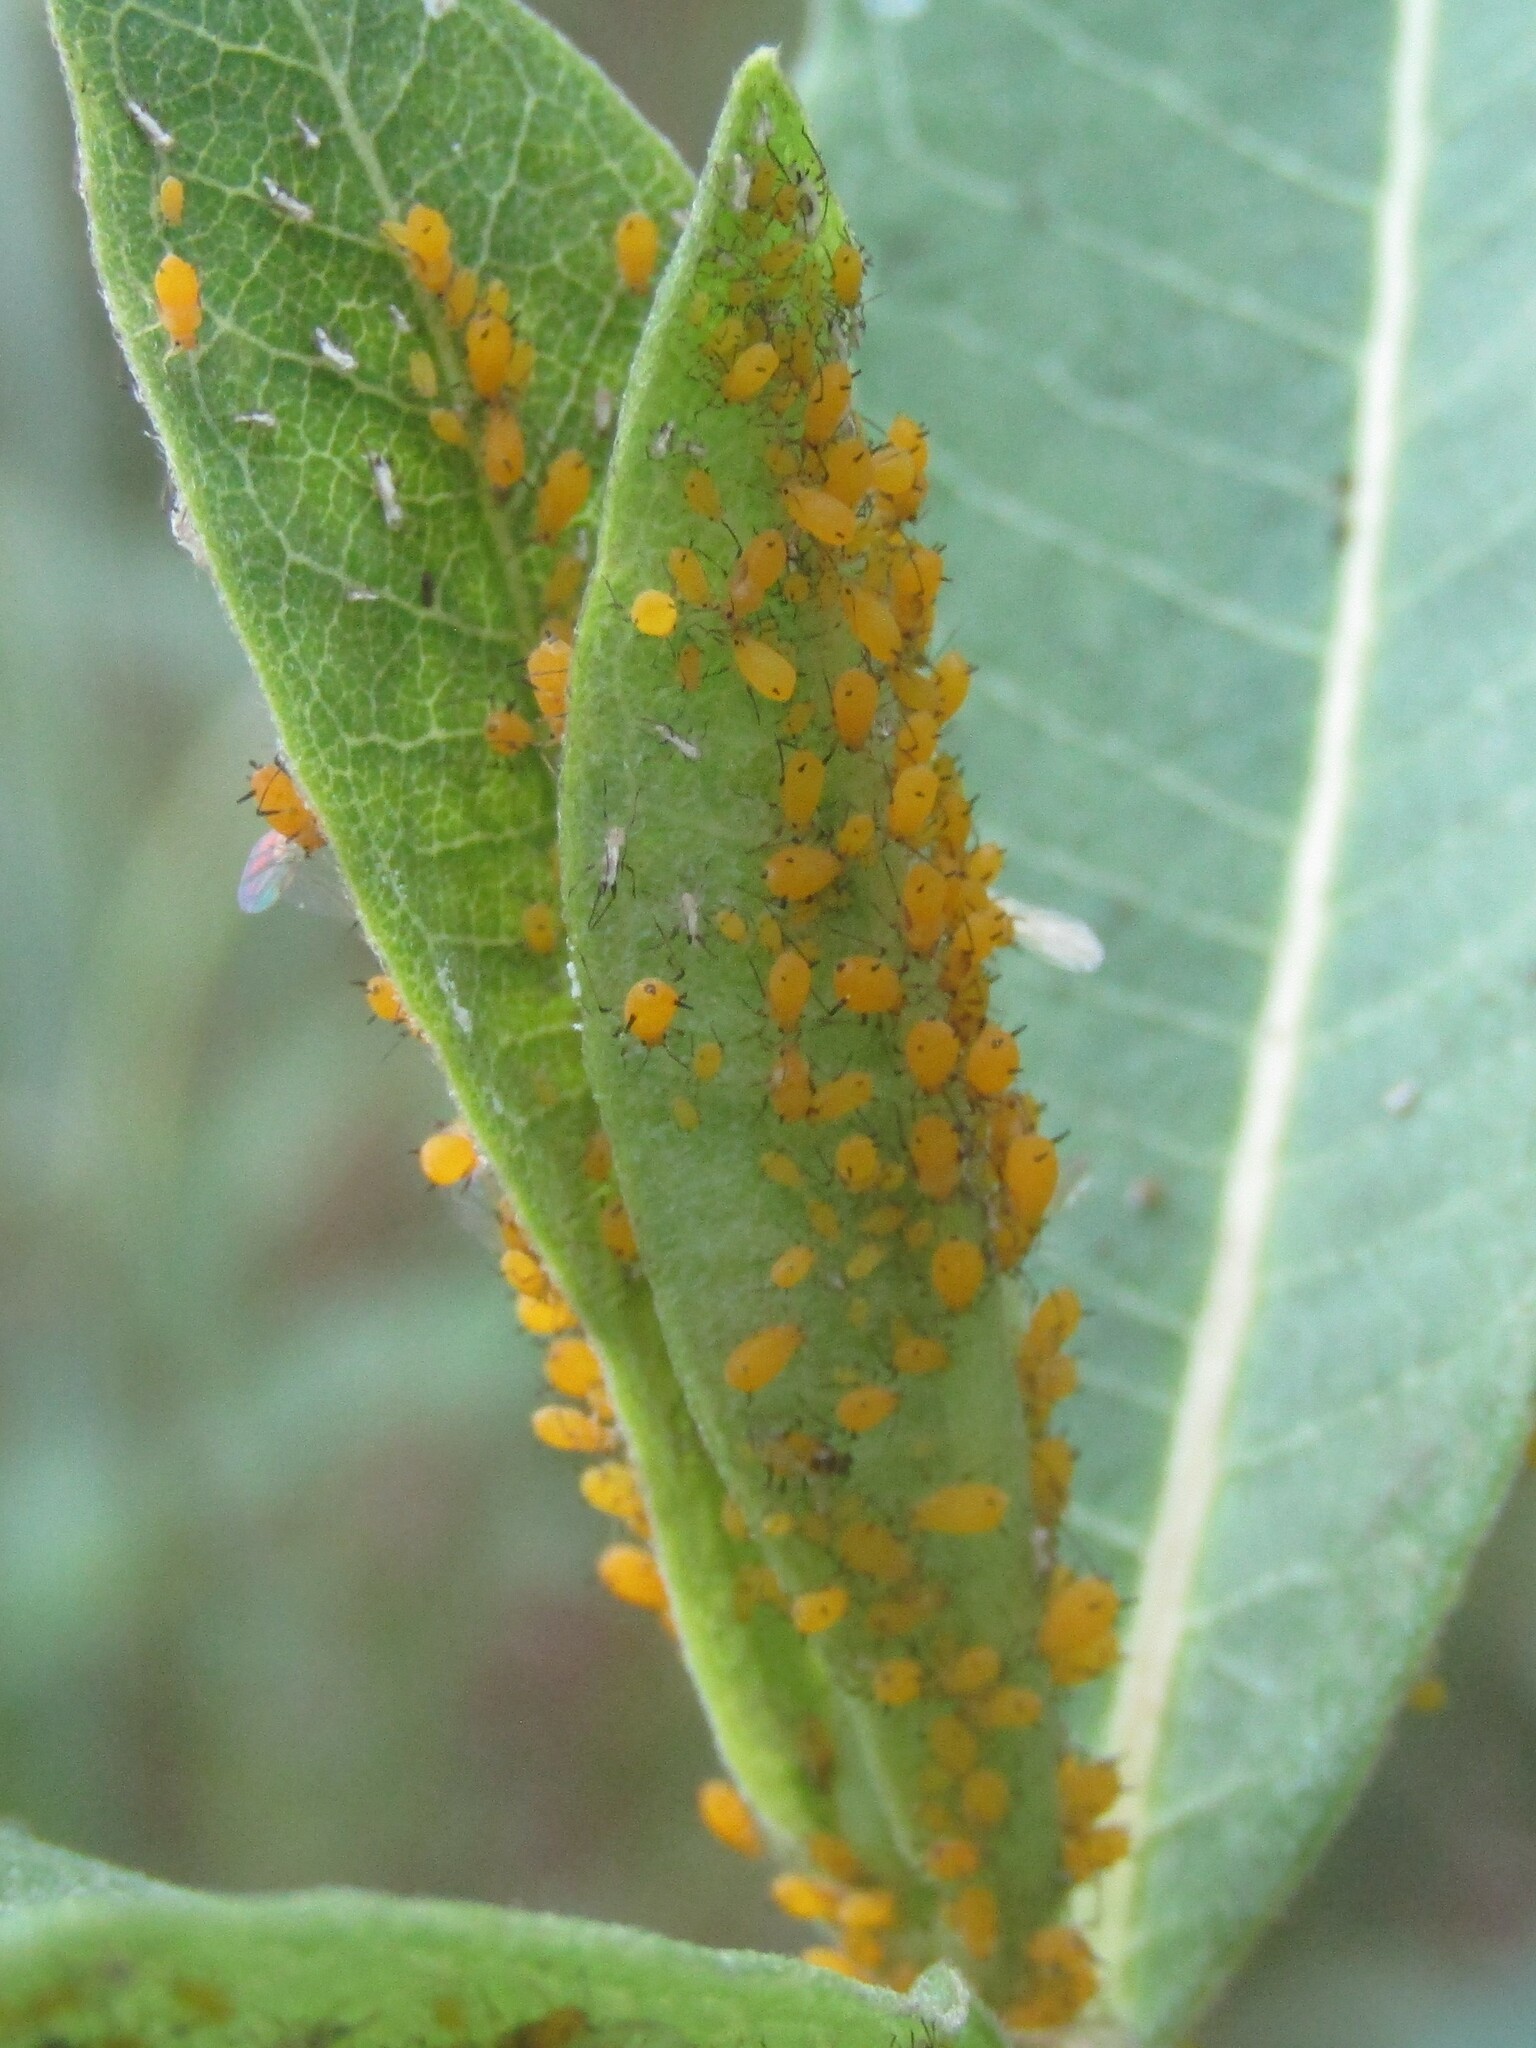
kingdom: Animalia
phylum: Arthropoda
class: Insecta
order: Hemiptera
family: Aphididae
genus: Aphis
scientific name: Aphis nerii
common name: Oleander aphid
